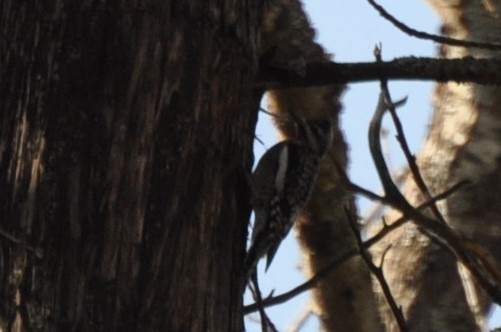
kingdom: Animalia
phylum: Chordata
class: Aves
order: Piciformes
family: Picidae
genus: Sphyrapicus
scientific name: Sphyrapicus varius
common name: Yellow-bellied sapsucker
